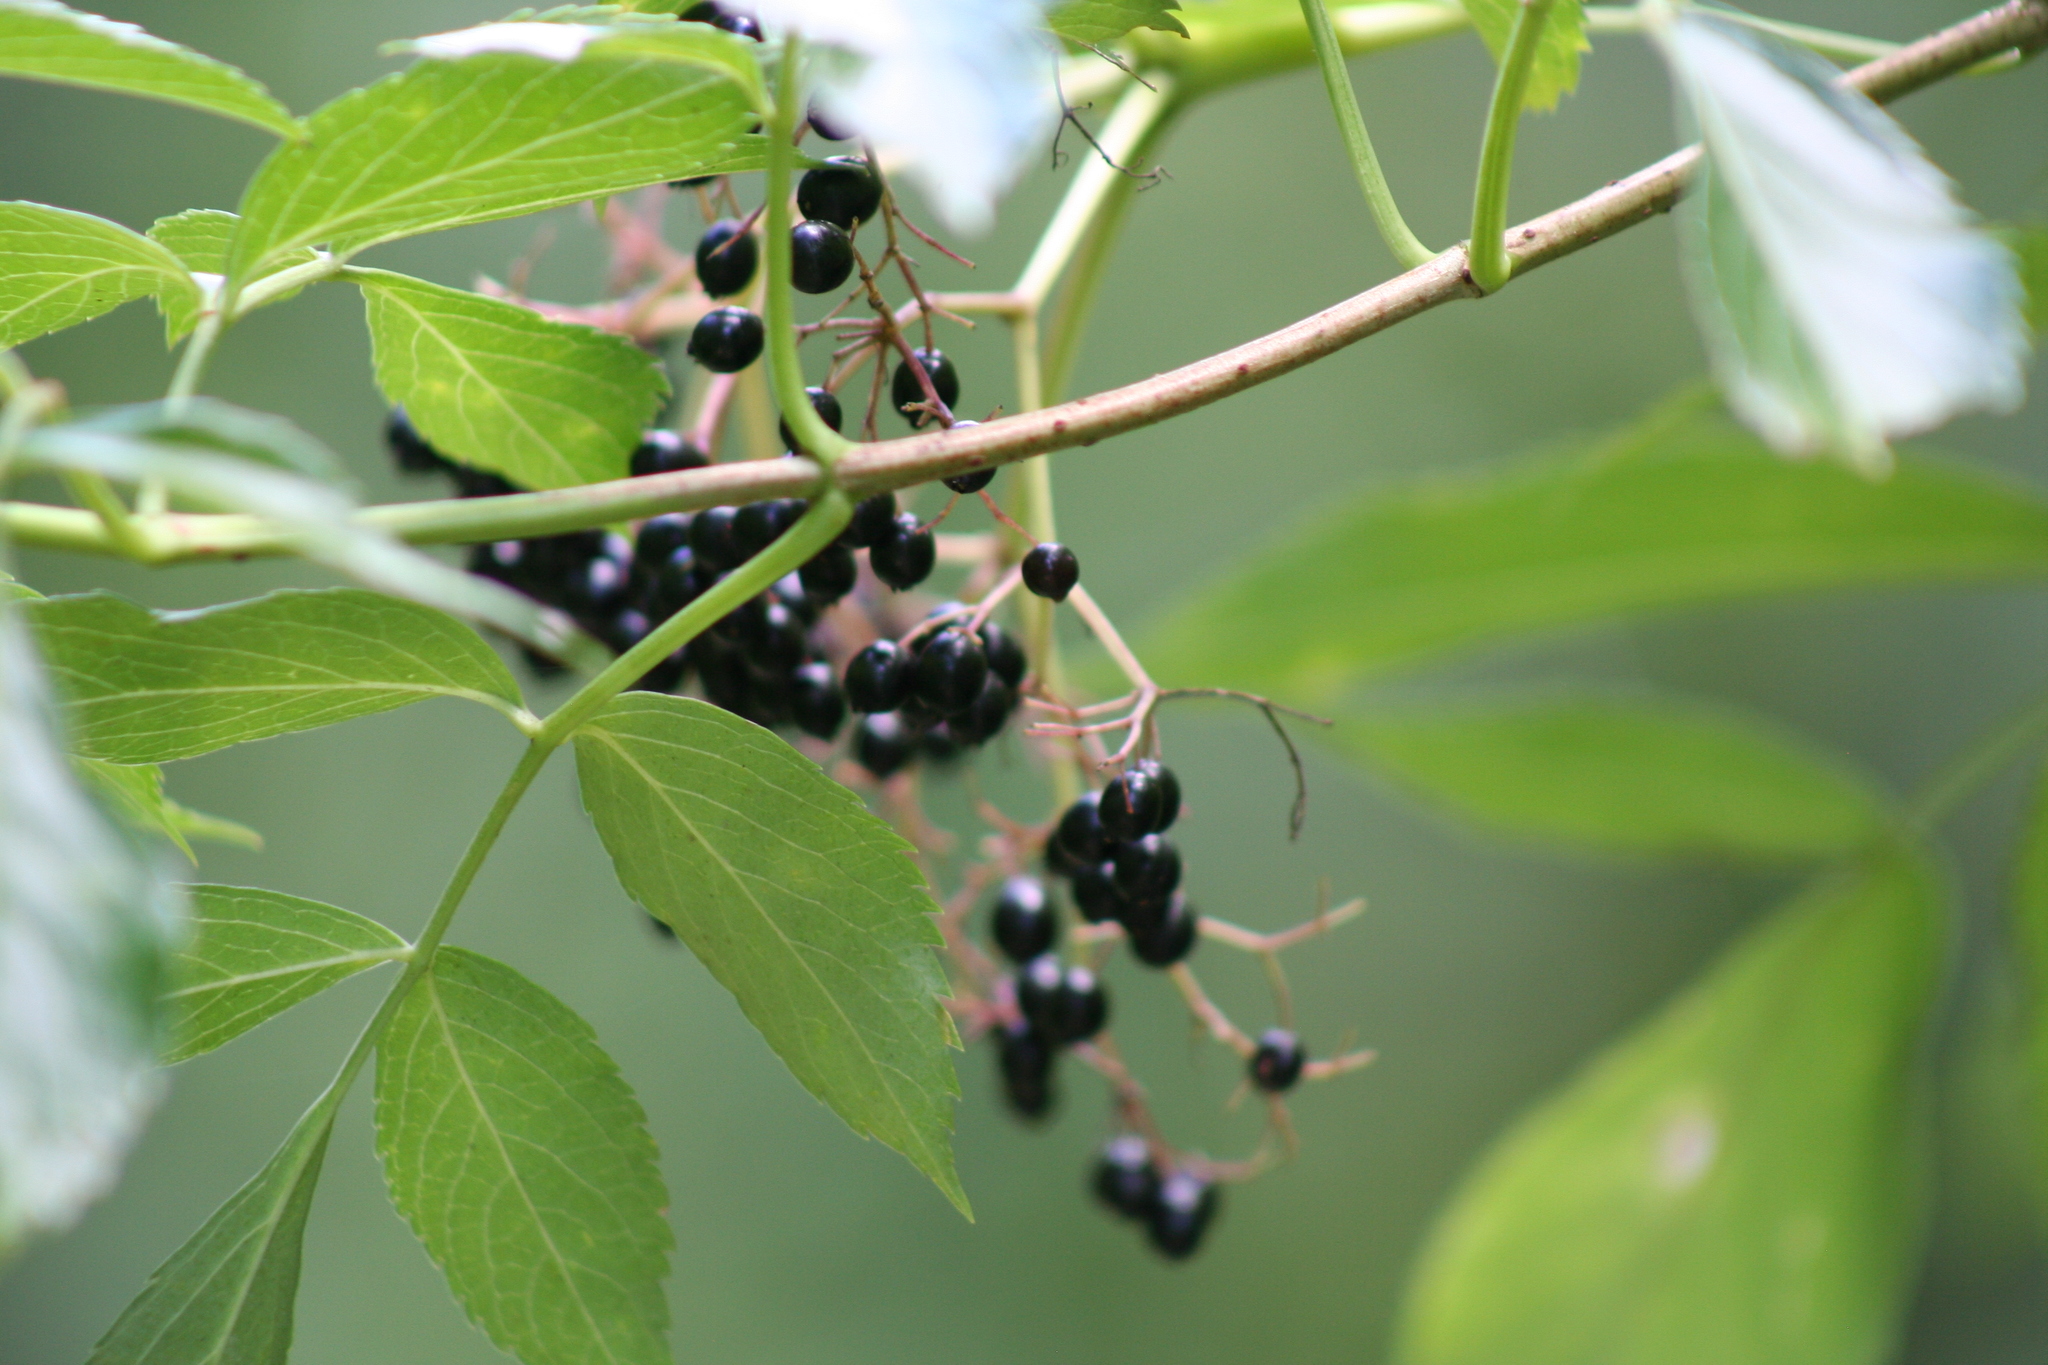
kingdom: Plantae
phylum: Tracheophyta
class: Magnoliopsida
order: Dipsacales
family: Viburnaceae
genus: Sambucus
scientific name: Sambucus canadensis
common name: American elder
